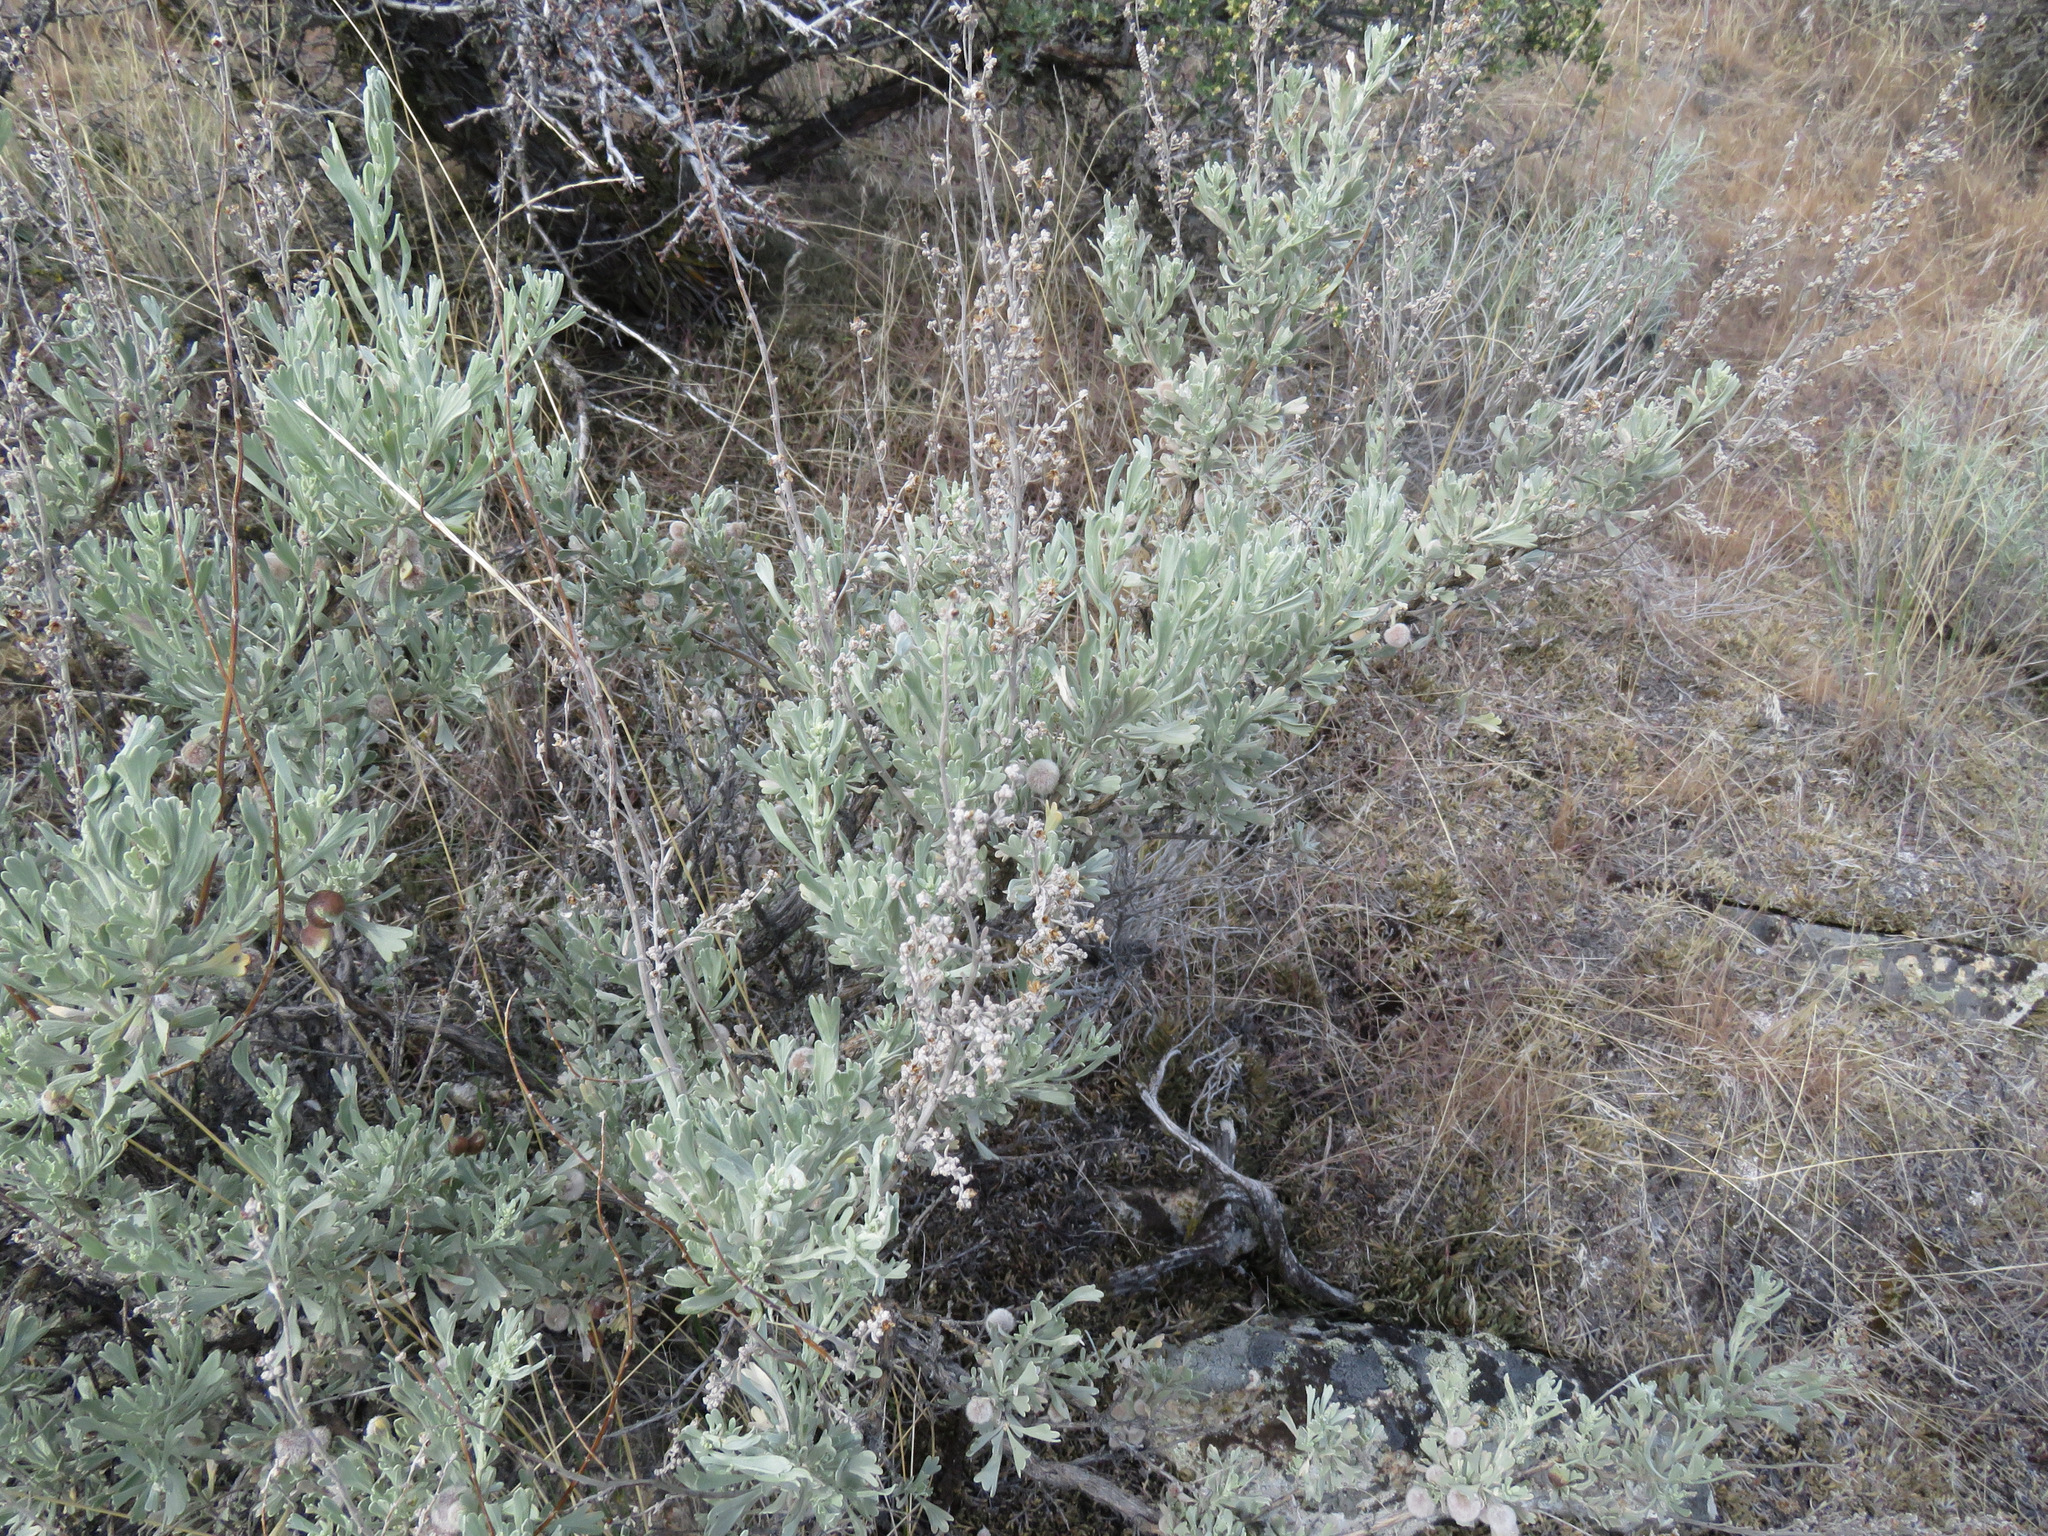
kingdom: Plantae
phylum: Tracheophyta
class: Magnoliopsida
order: Asterales
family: Asteraceae
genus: Artemisia
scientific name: Artemisia tridentata
